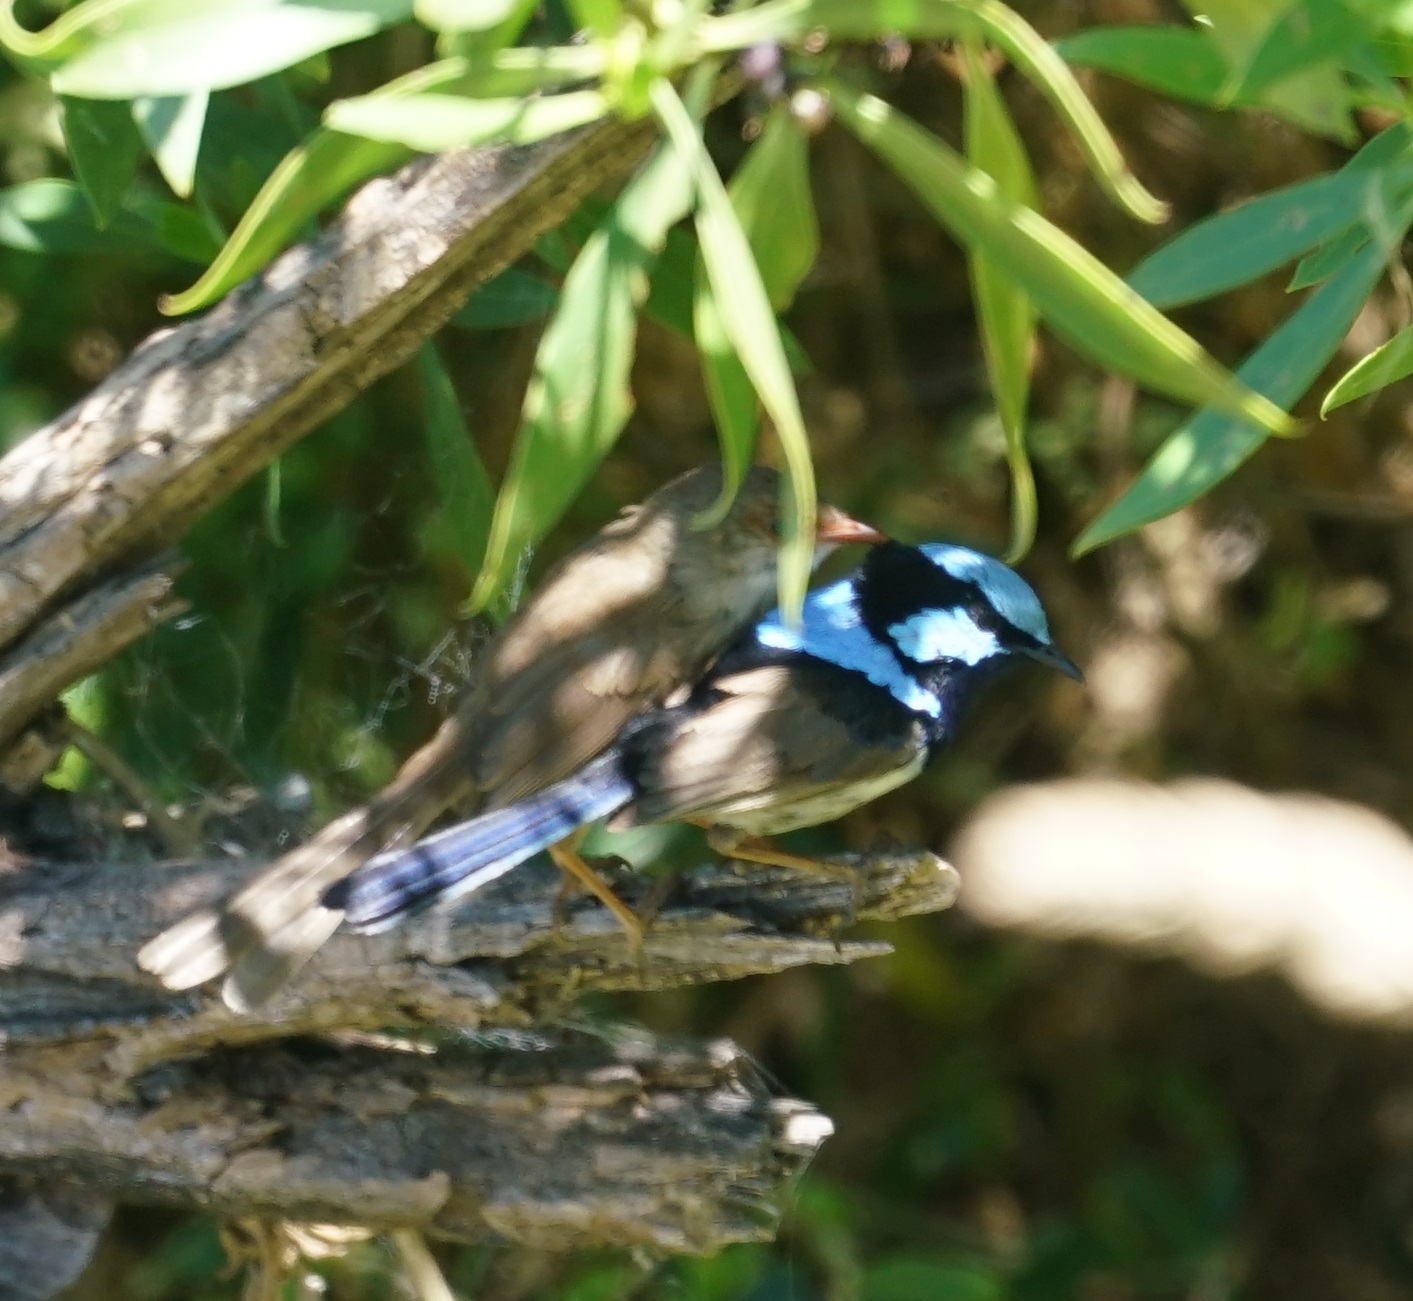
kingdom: Animalia
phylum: Chordata
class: Aves
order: Passeriformes
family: Maluridae
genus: Malurus
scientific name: Malurus cyaneus
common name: Superb fairywren
